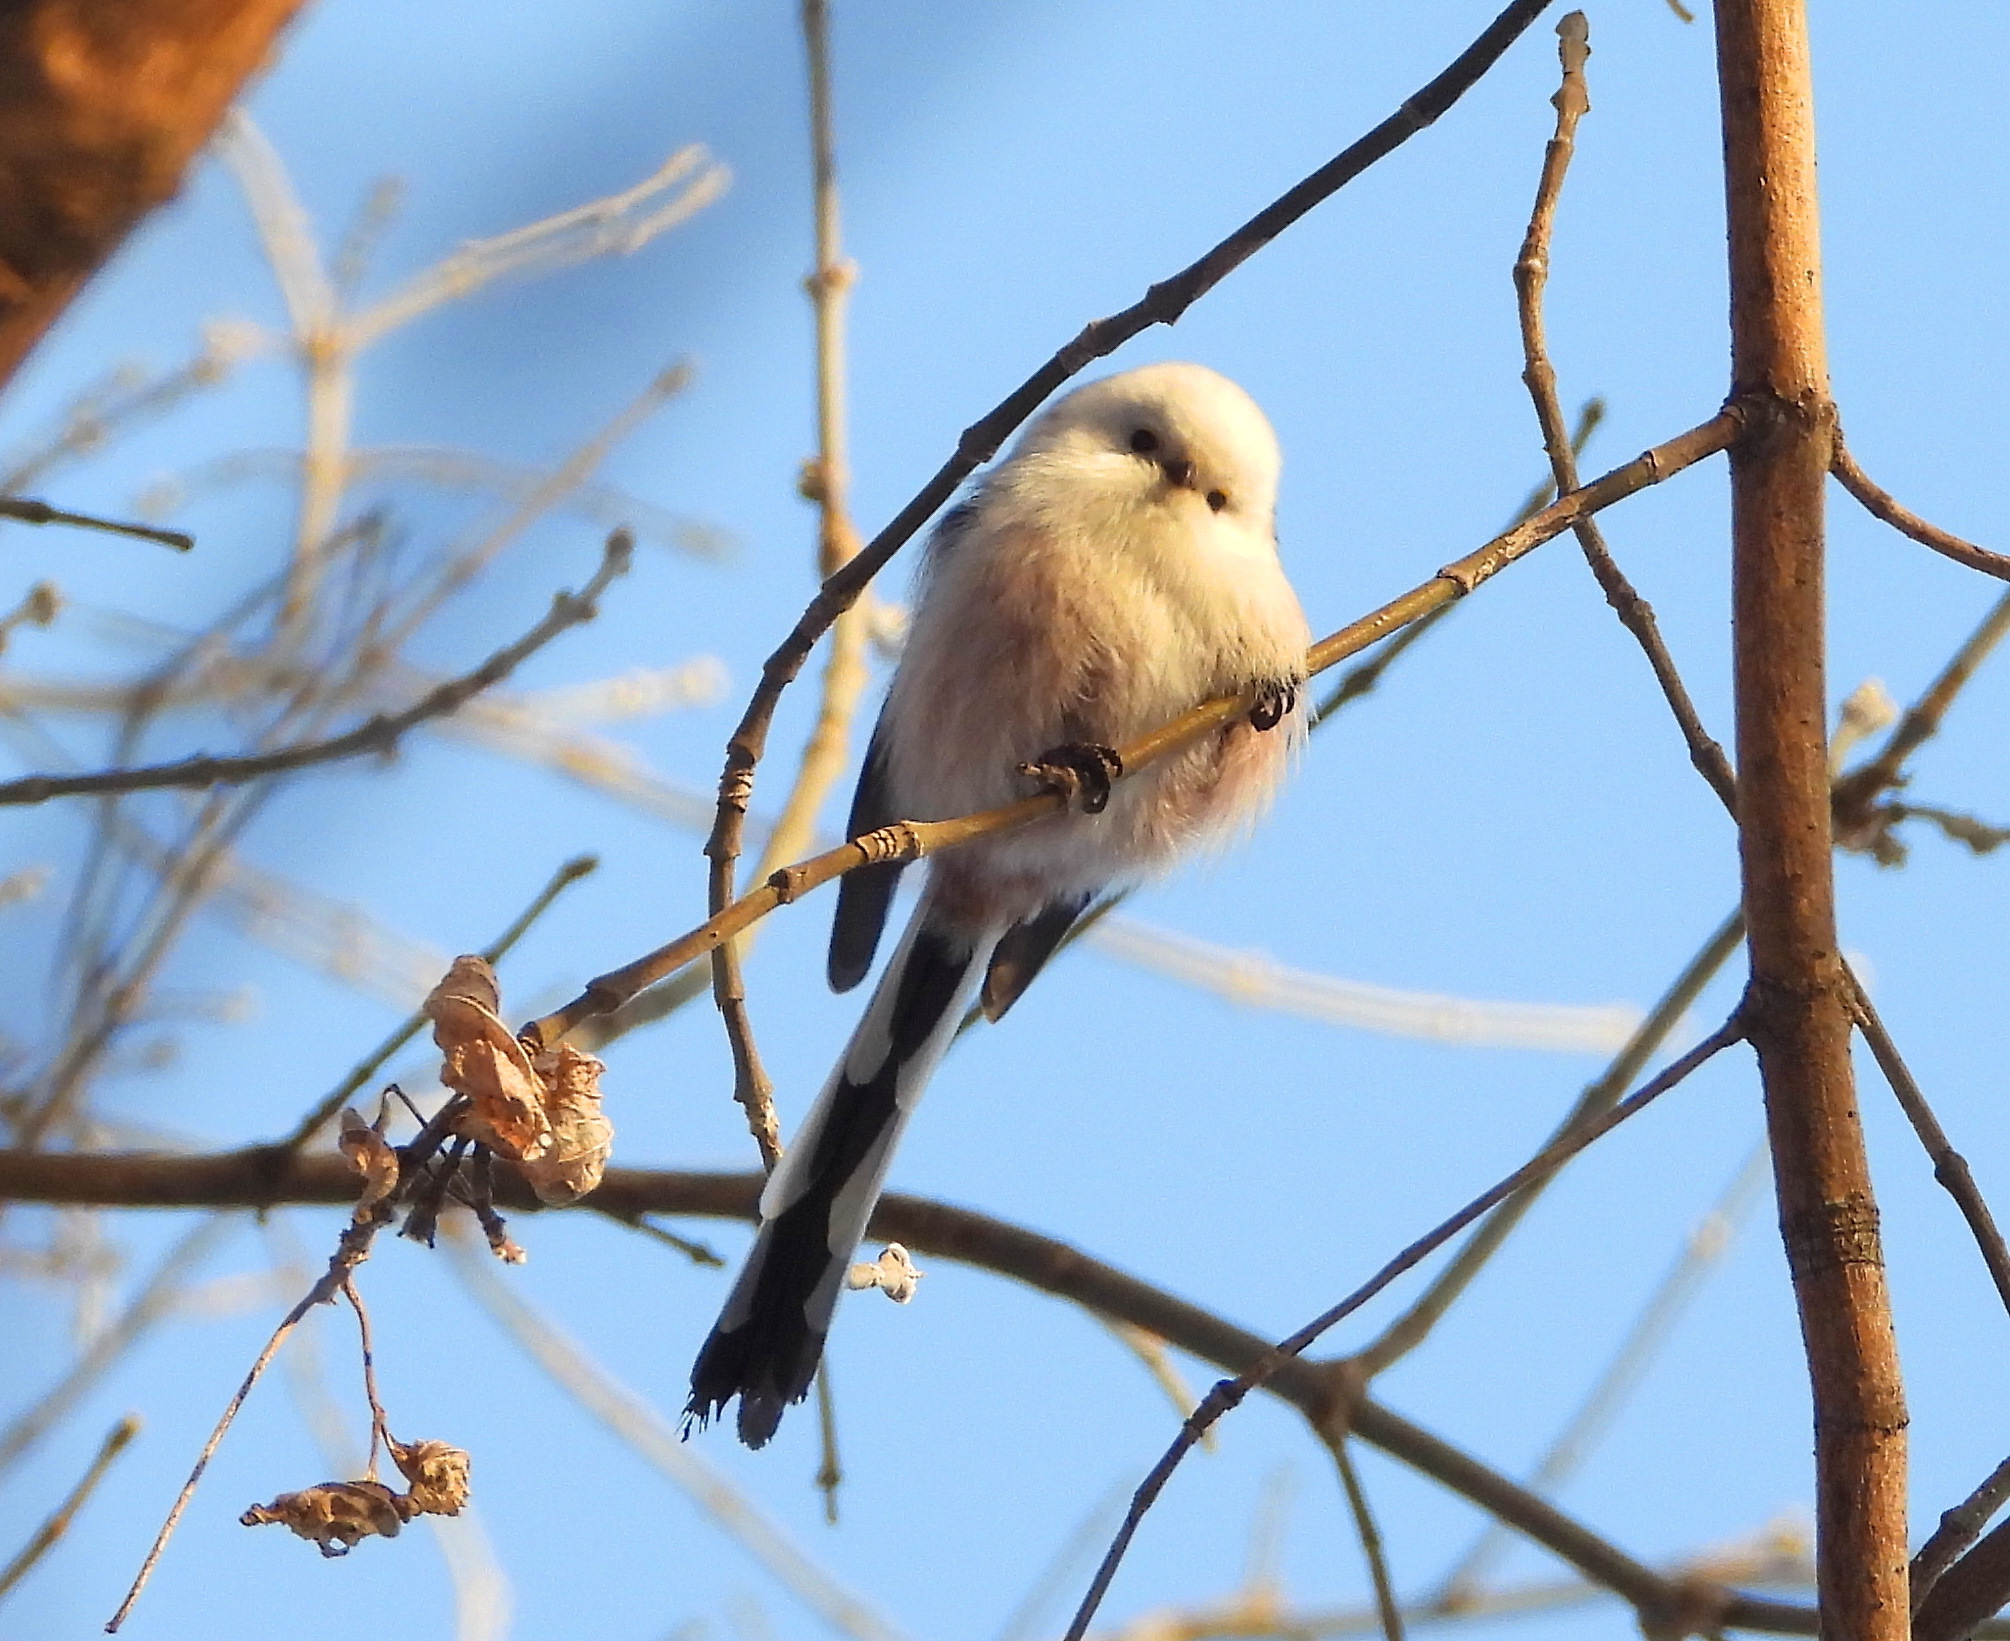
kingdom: Animalia
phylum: Chordata
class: Aves
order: Passeriformes
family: Aegithalidae
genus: Aegithalos
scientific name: Aegithalos caudatus
